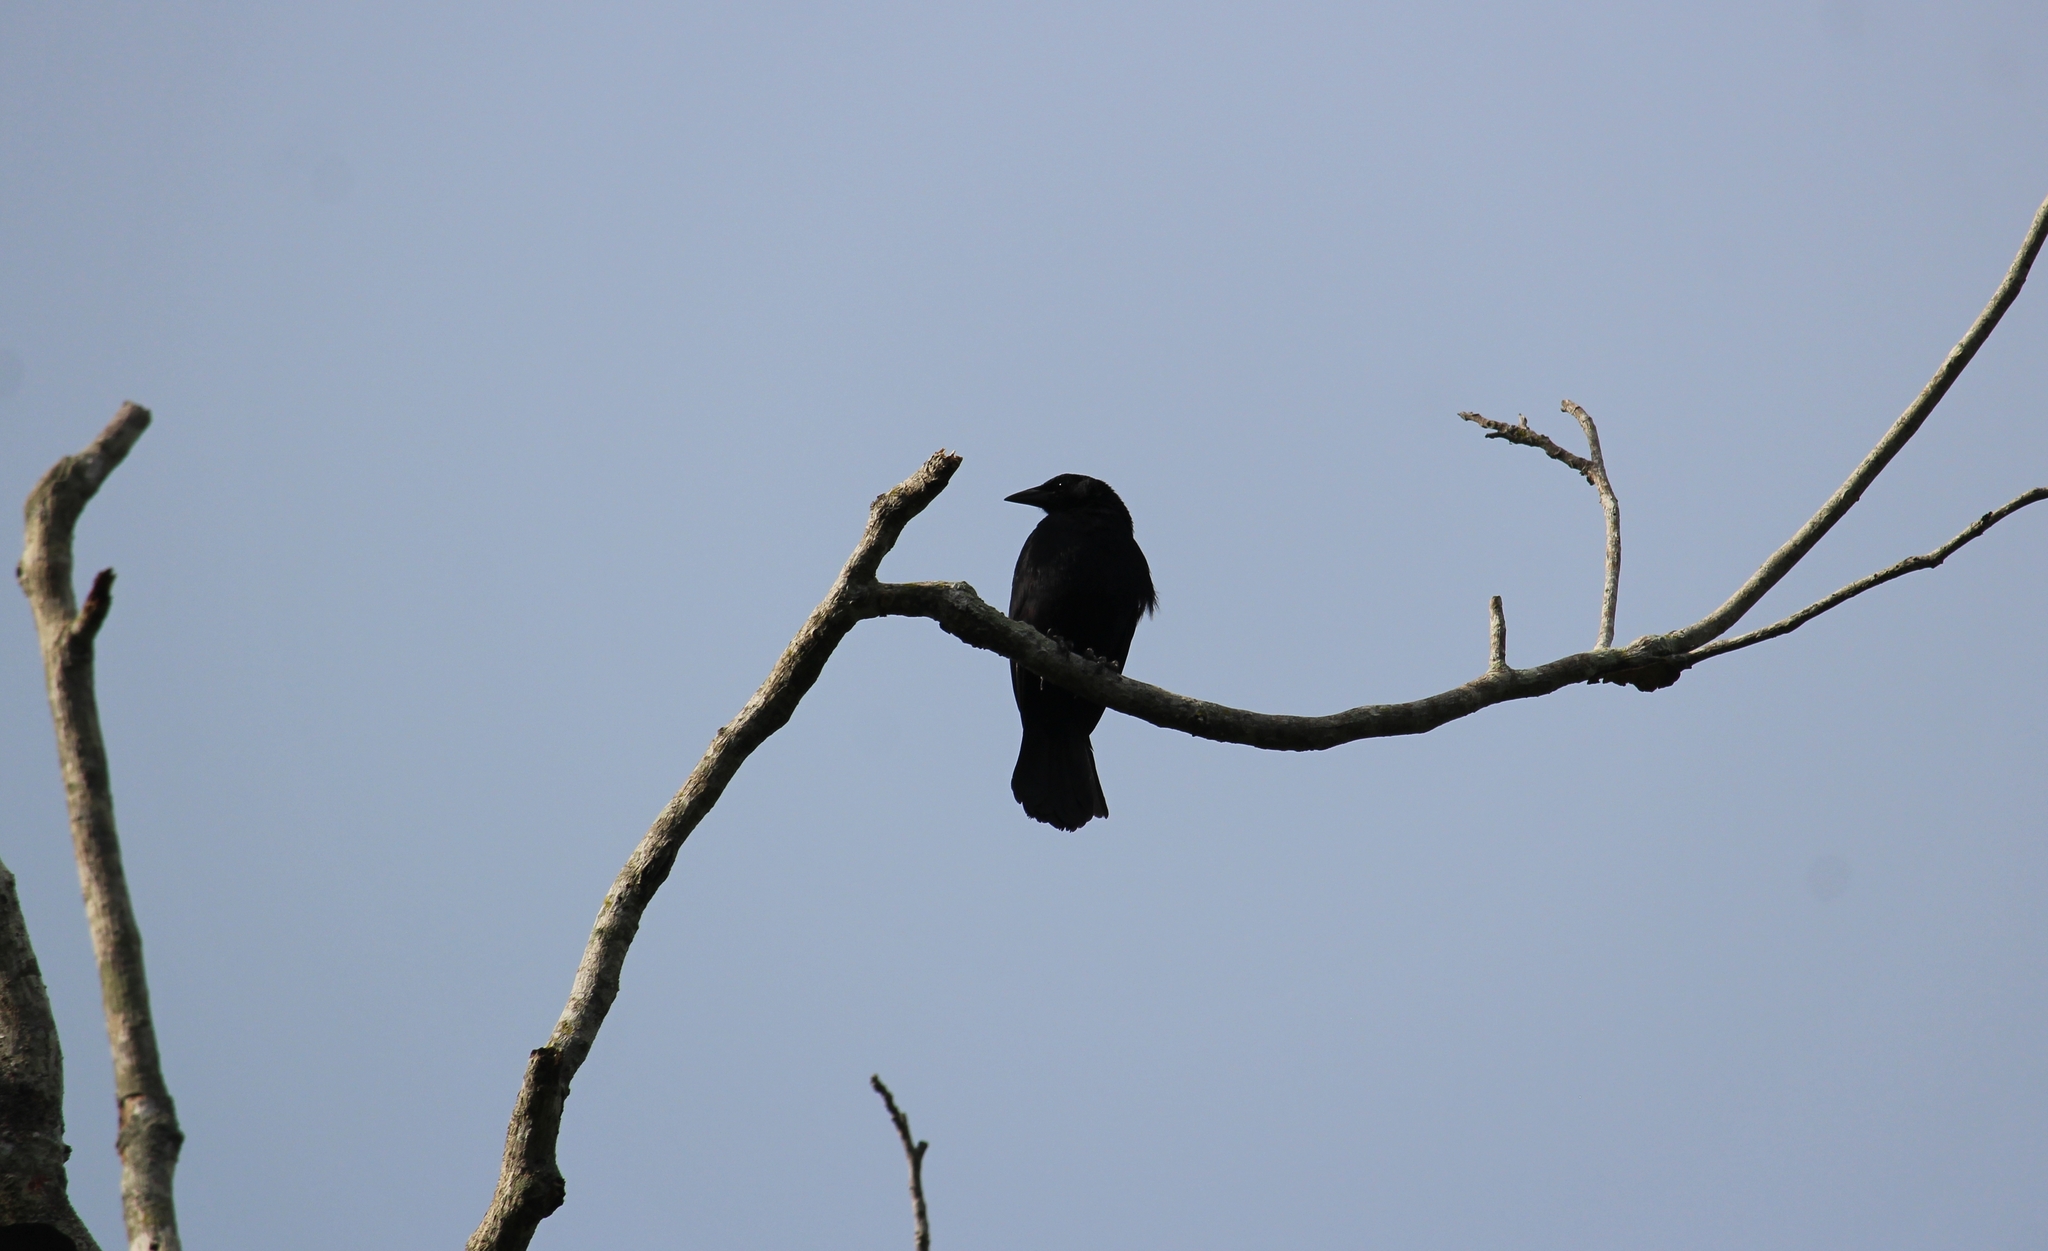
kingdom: Animalia
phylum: Chordata
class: Aves
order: Passeriformes
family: Icteridae
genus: Dives
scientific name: Dives dives
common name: Melodious blackbird
